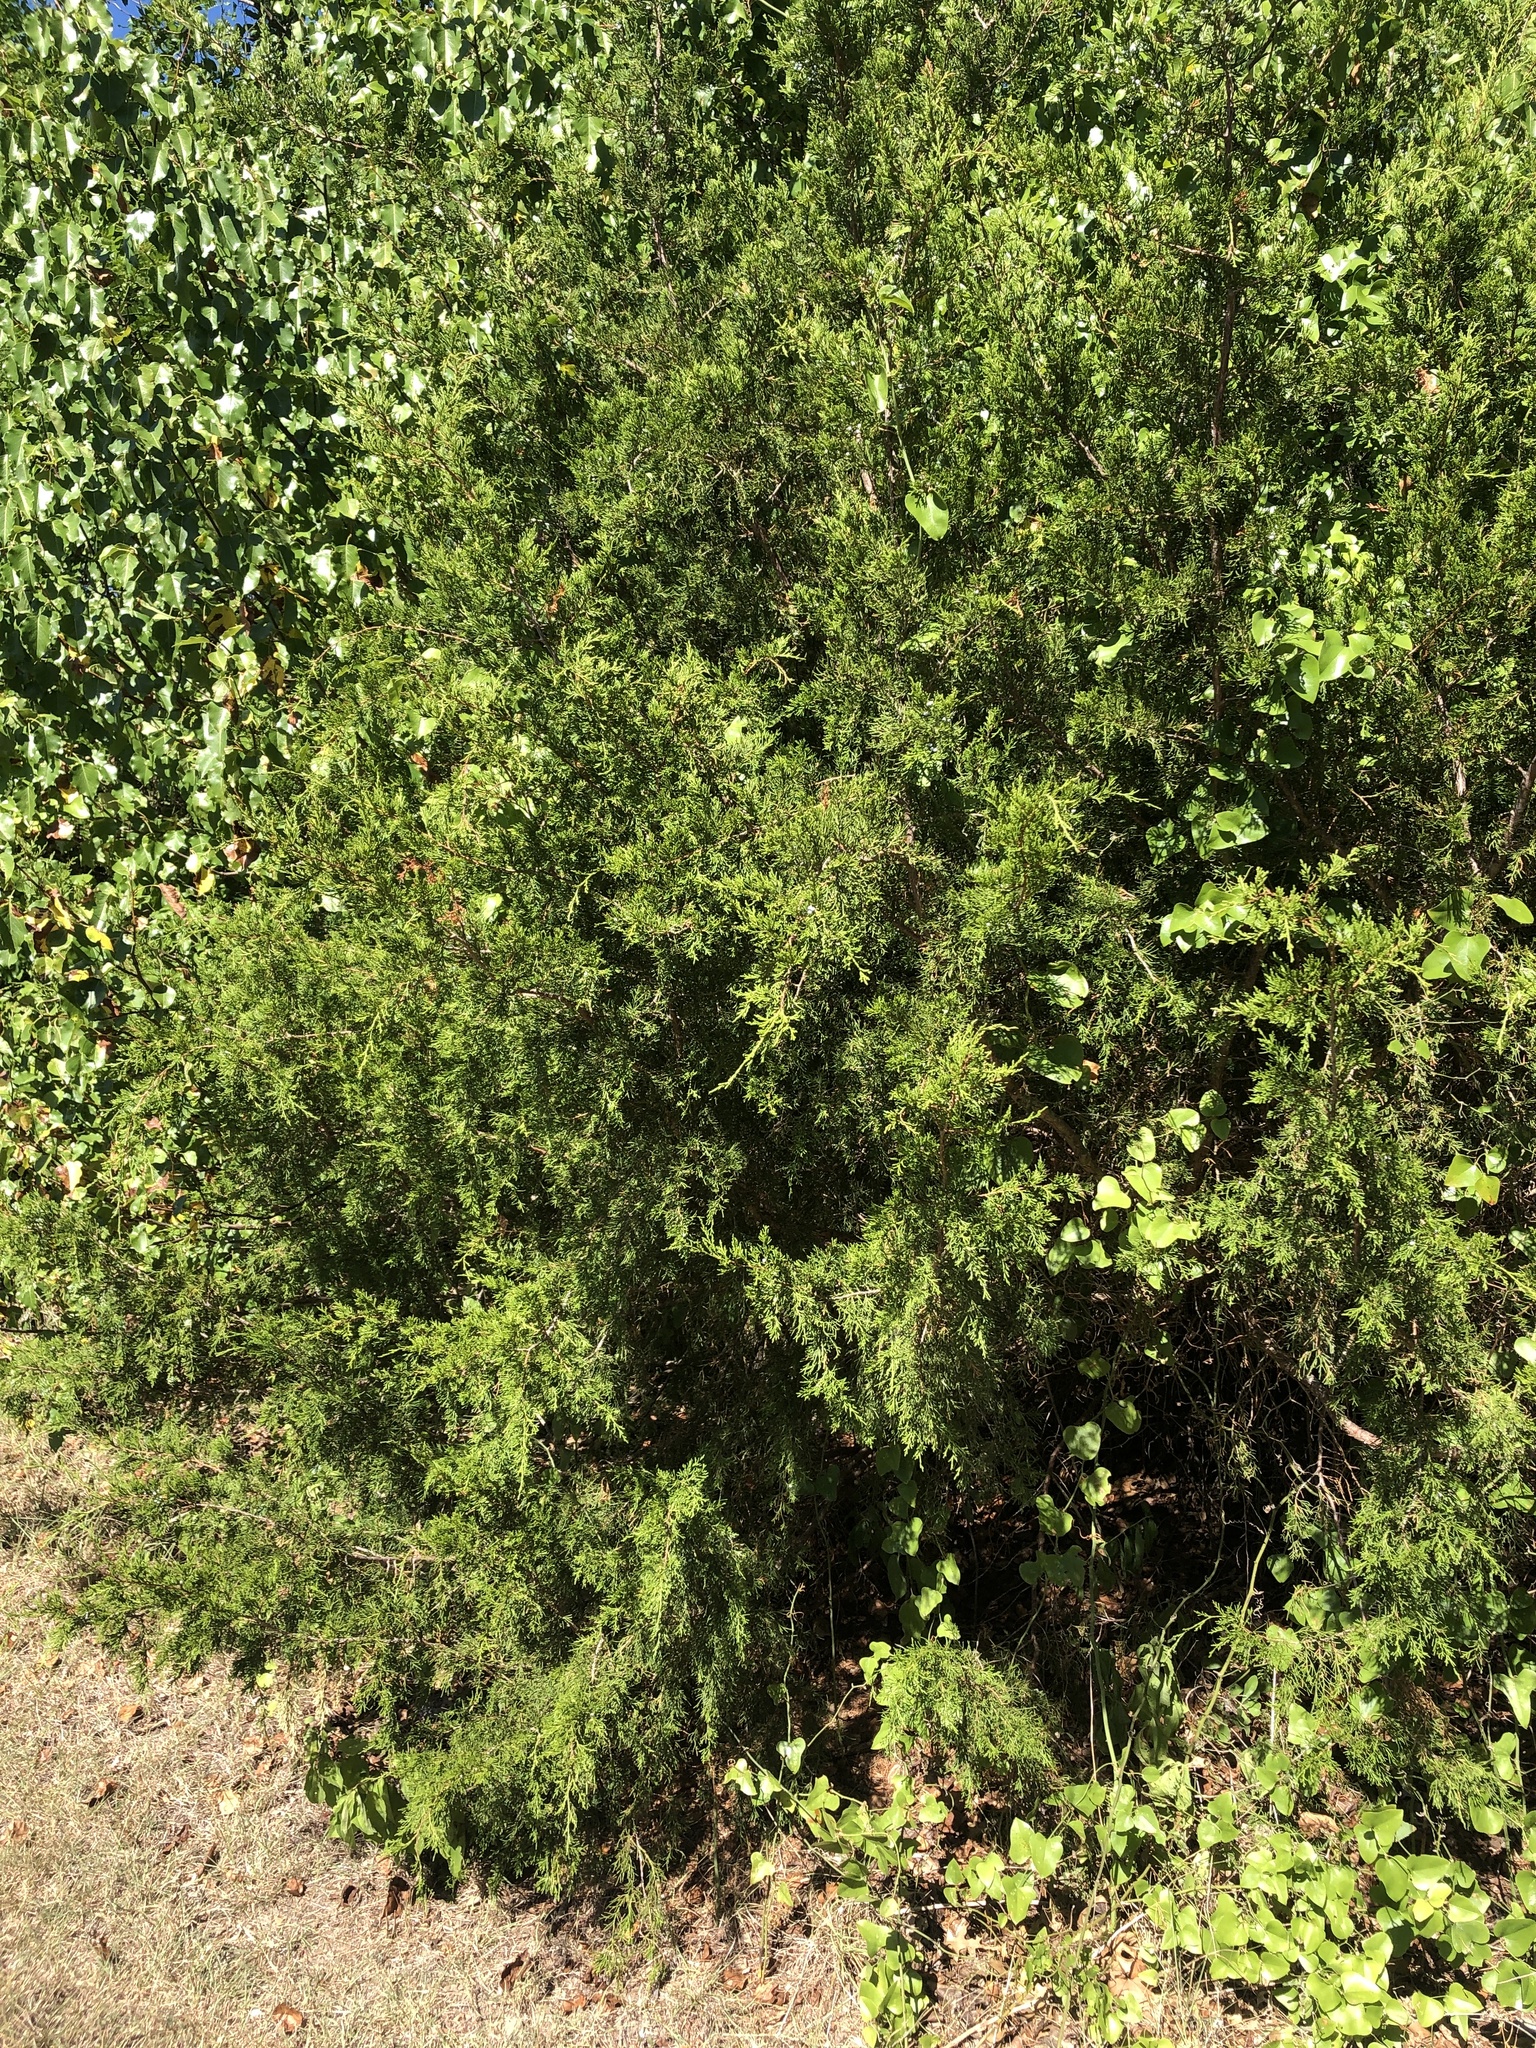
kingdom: Plantae
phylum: Tracheophyta
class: Pinopsida
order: Pinales
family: Cupressaceae
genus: Juniperus
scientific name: Juniperus virginiana
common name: Red juniper
